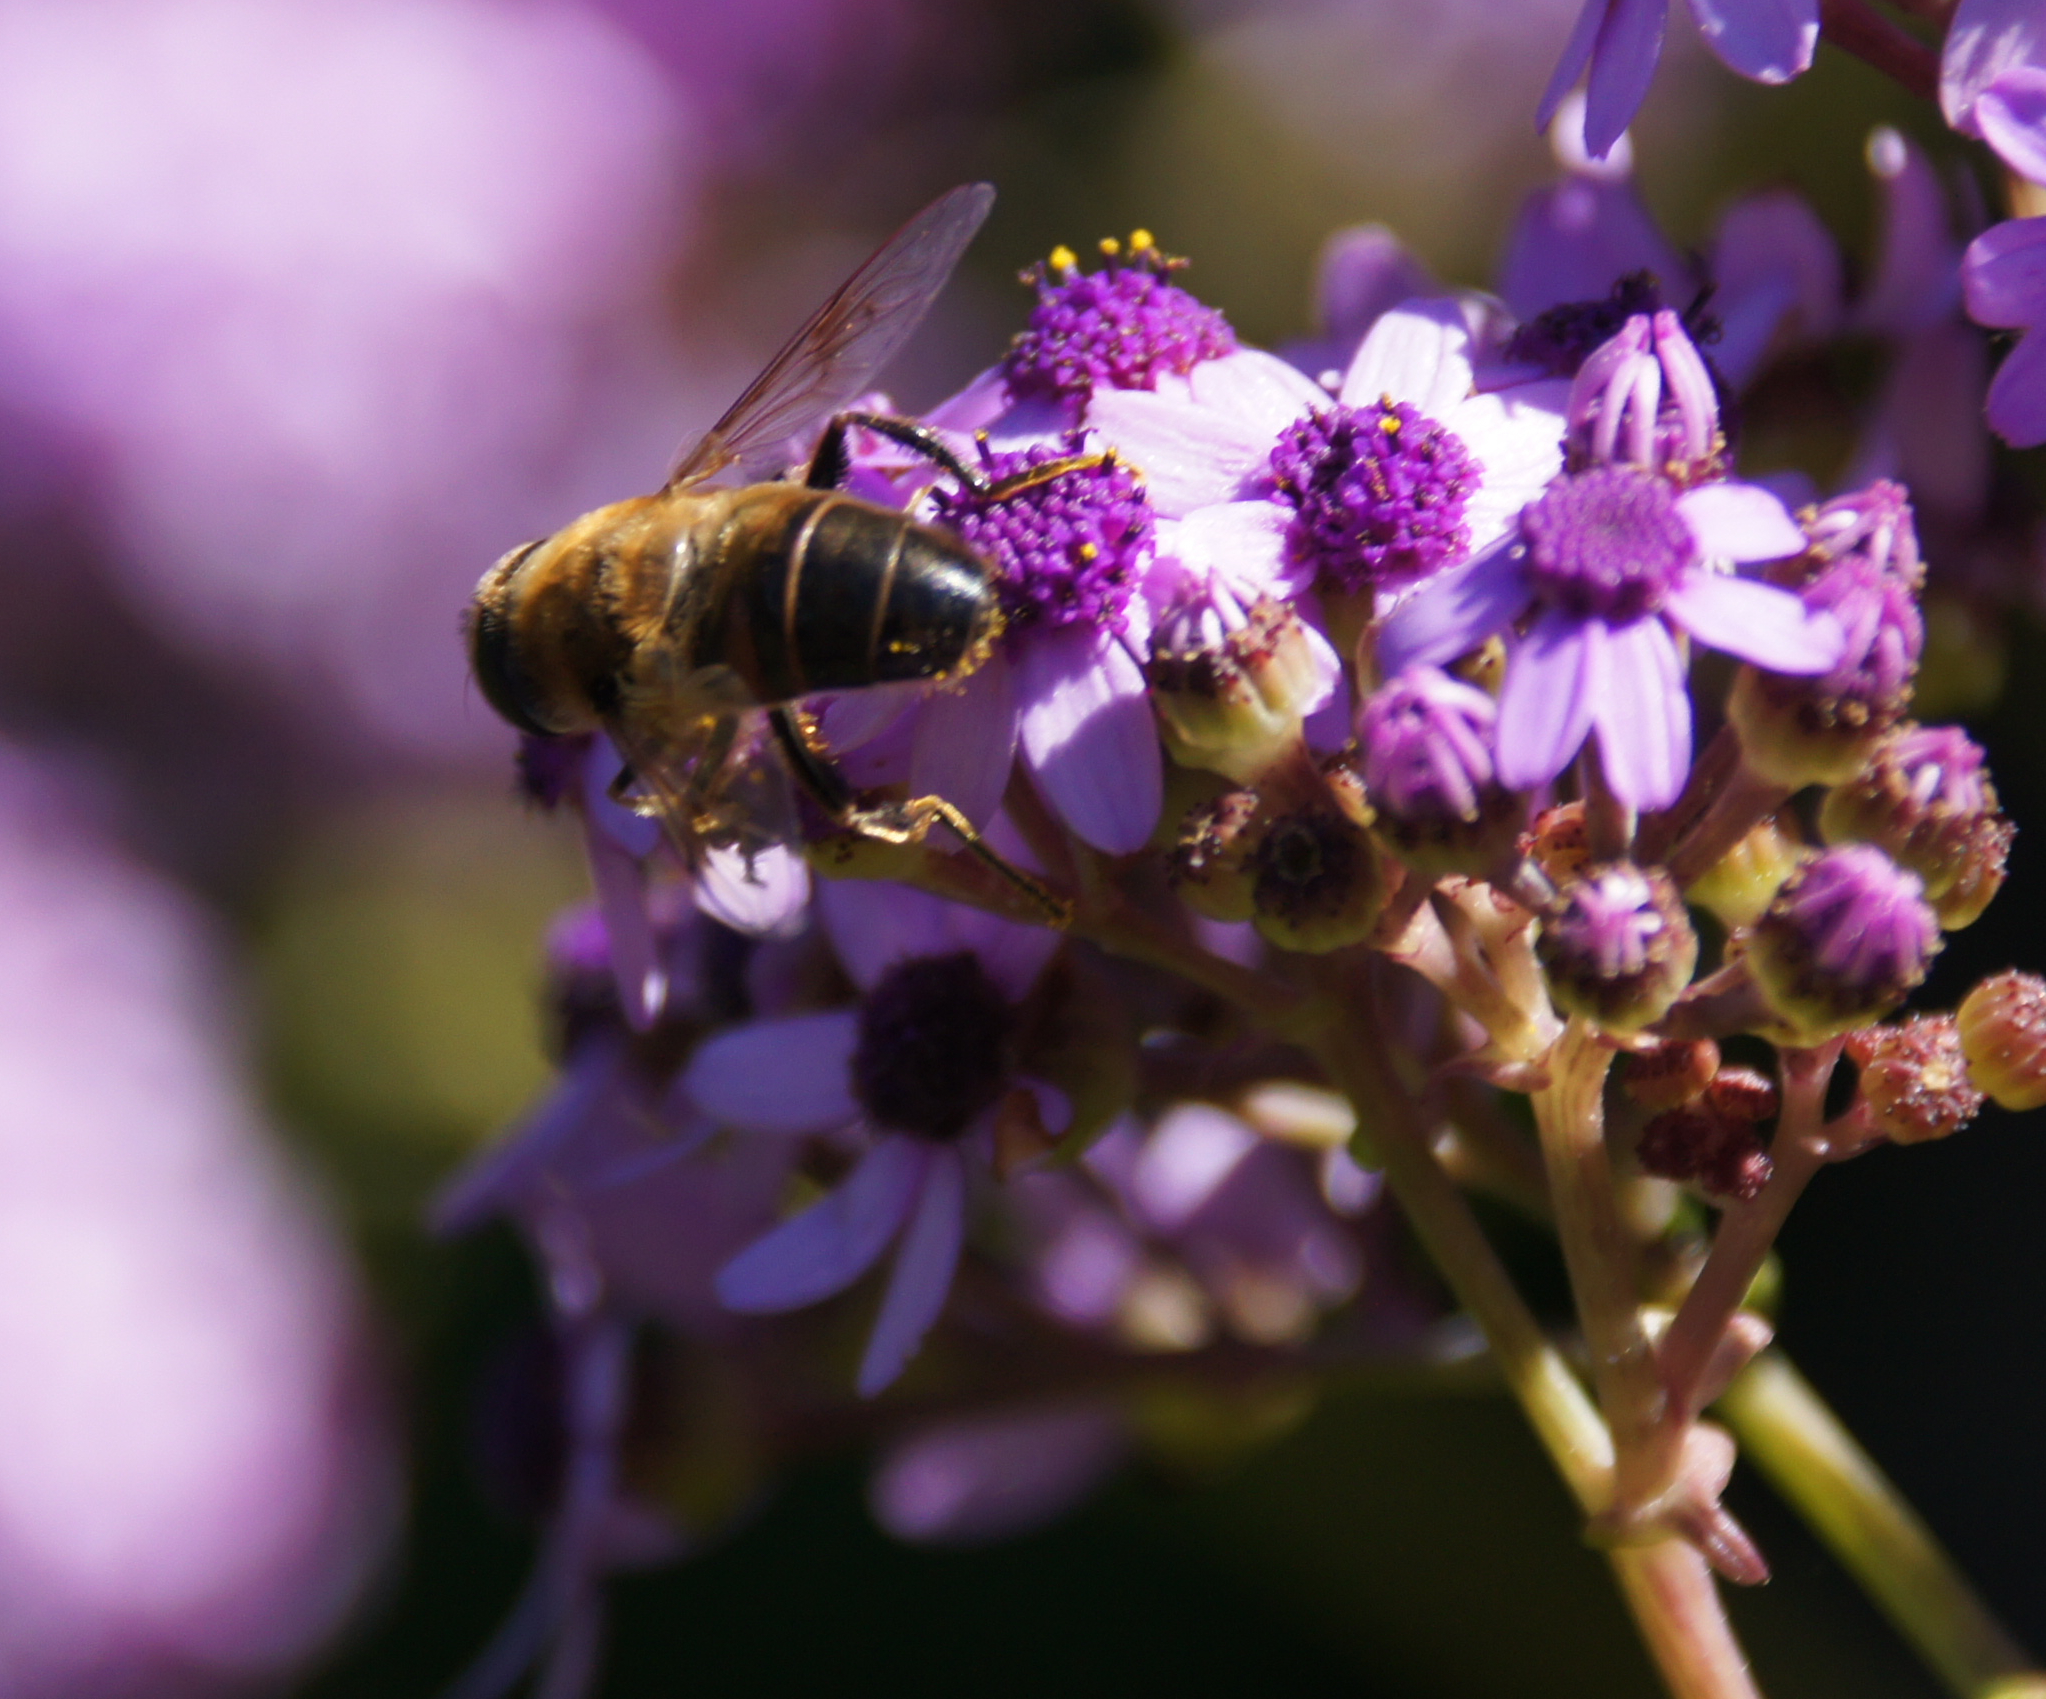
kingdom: Animalia
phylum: Arthropoda
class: Insecta
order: Diptera
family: Syrphidae
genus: Eristalis
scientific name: Eristalis tenax
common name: Drone fly
